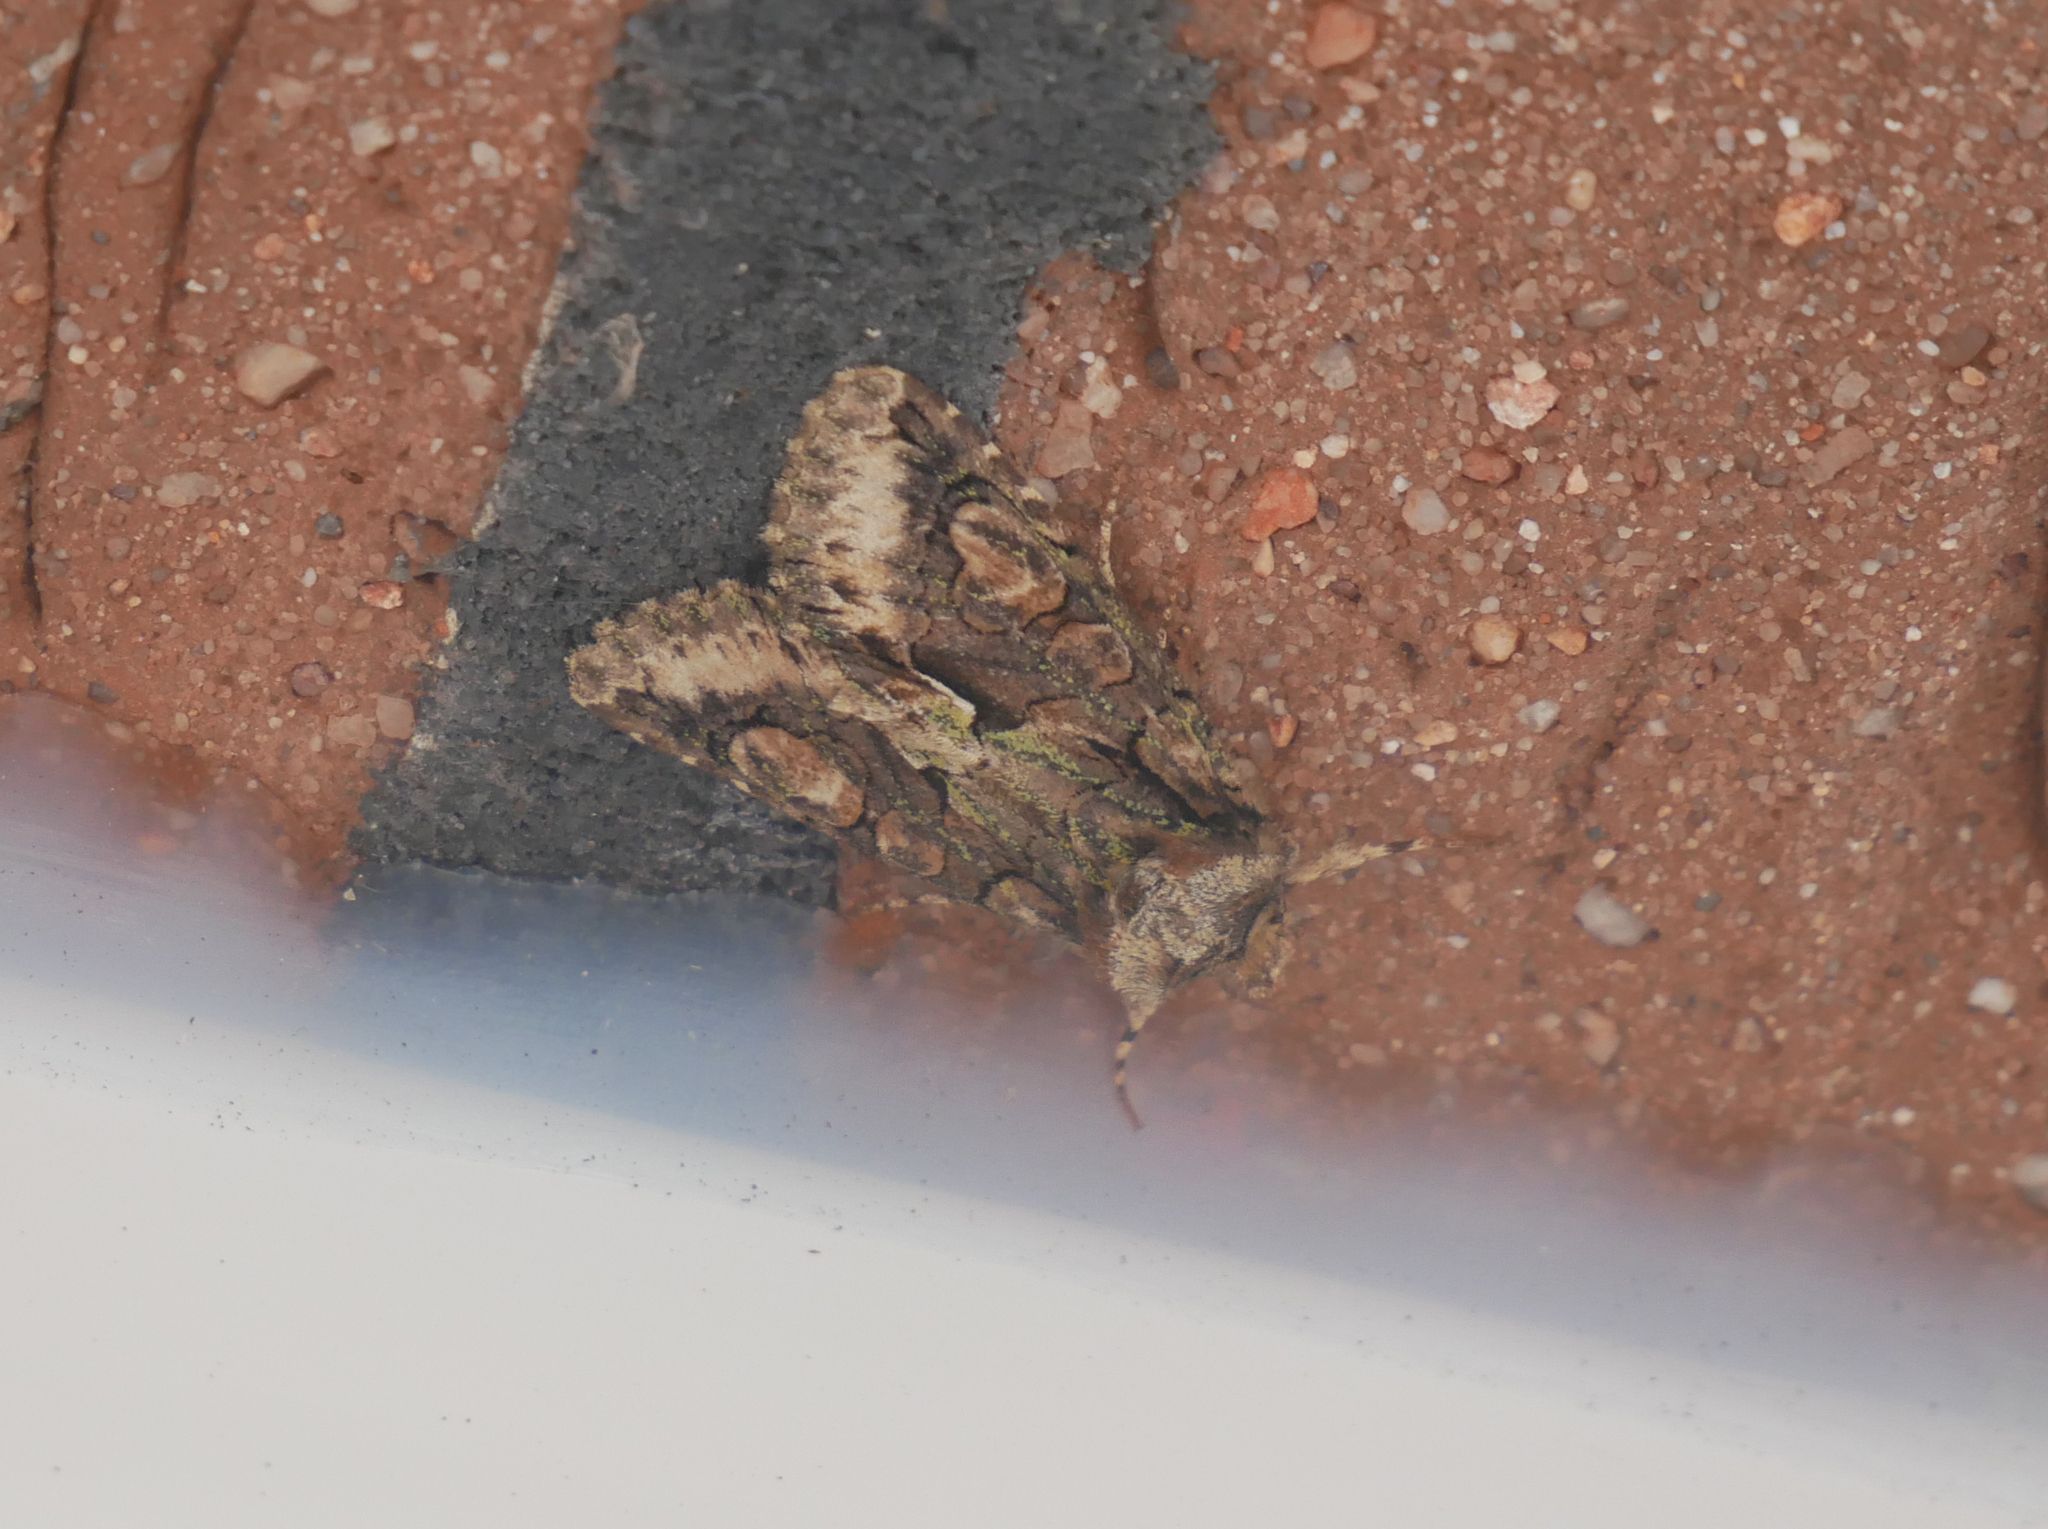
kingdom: Animalia
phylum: Arthropoda
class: Insecta
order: Lepidoptera
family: Noctuidae
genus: Allophyes
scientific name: Allophyes oxyacanthae
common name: Green-brindled crescent
